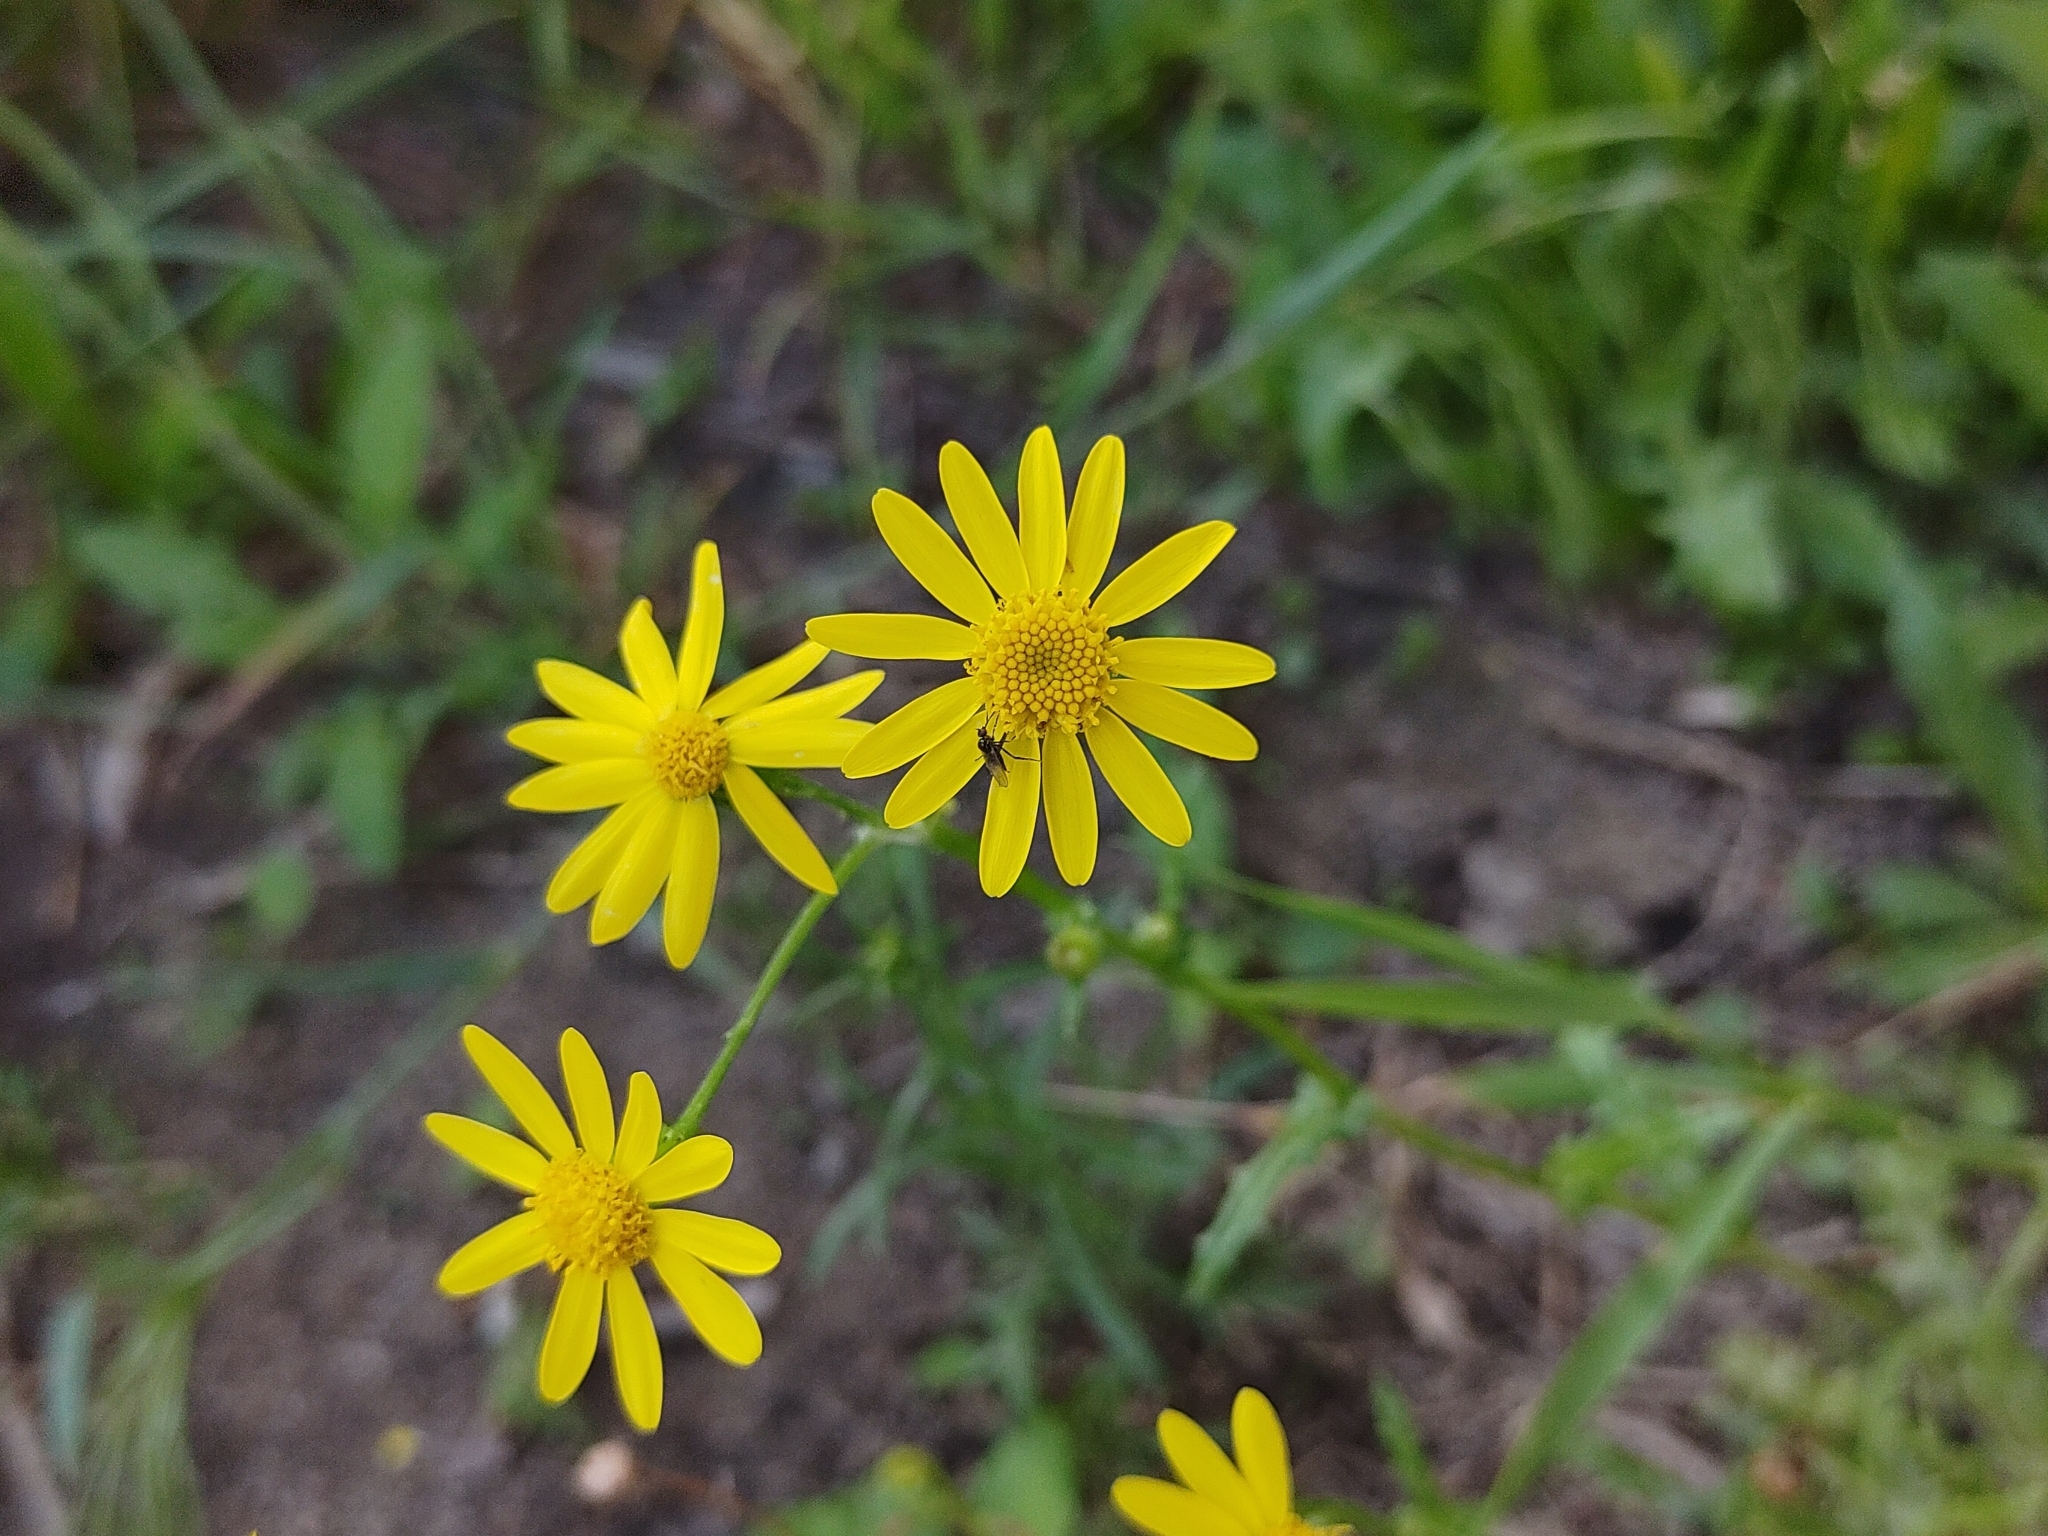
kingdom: Plantae
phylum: Tracheophyta
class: Magnoliopsida
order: Asterales
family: Asteraceae
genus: Senecio
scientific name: Senecio vernalis
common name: Eastern groundsel
